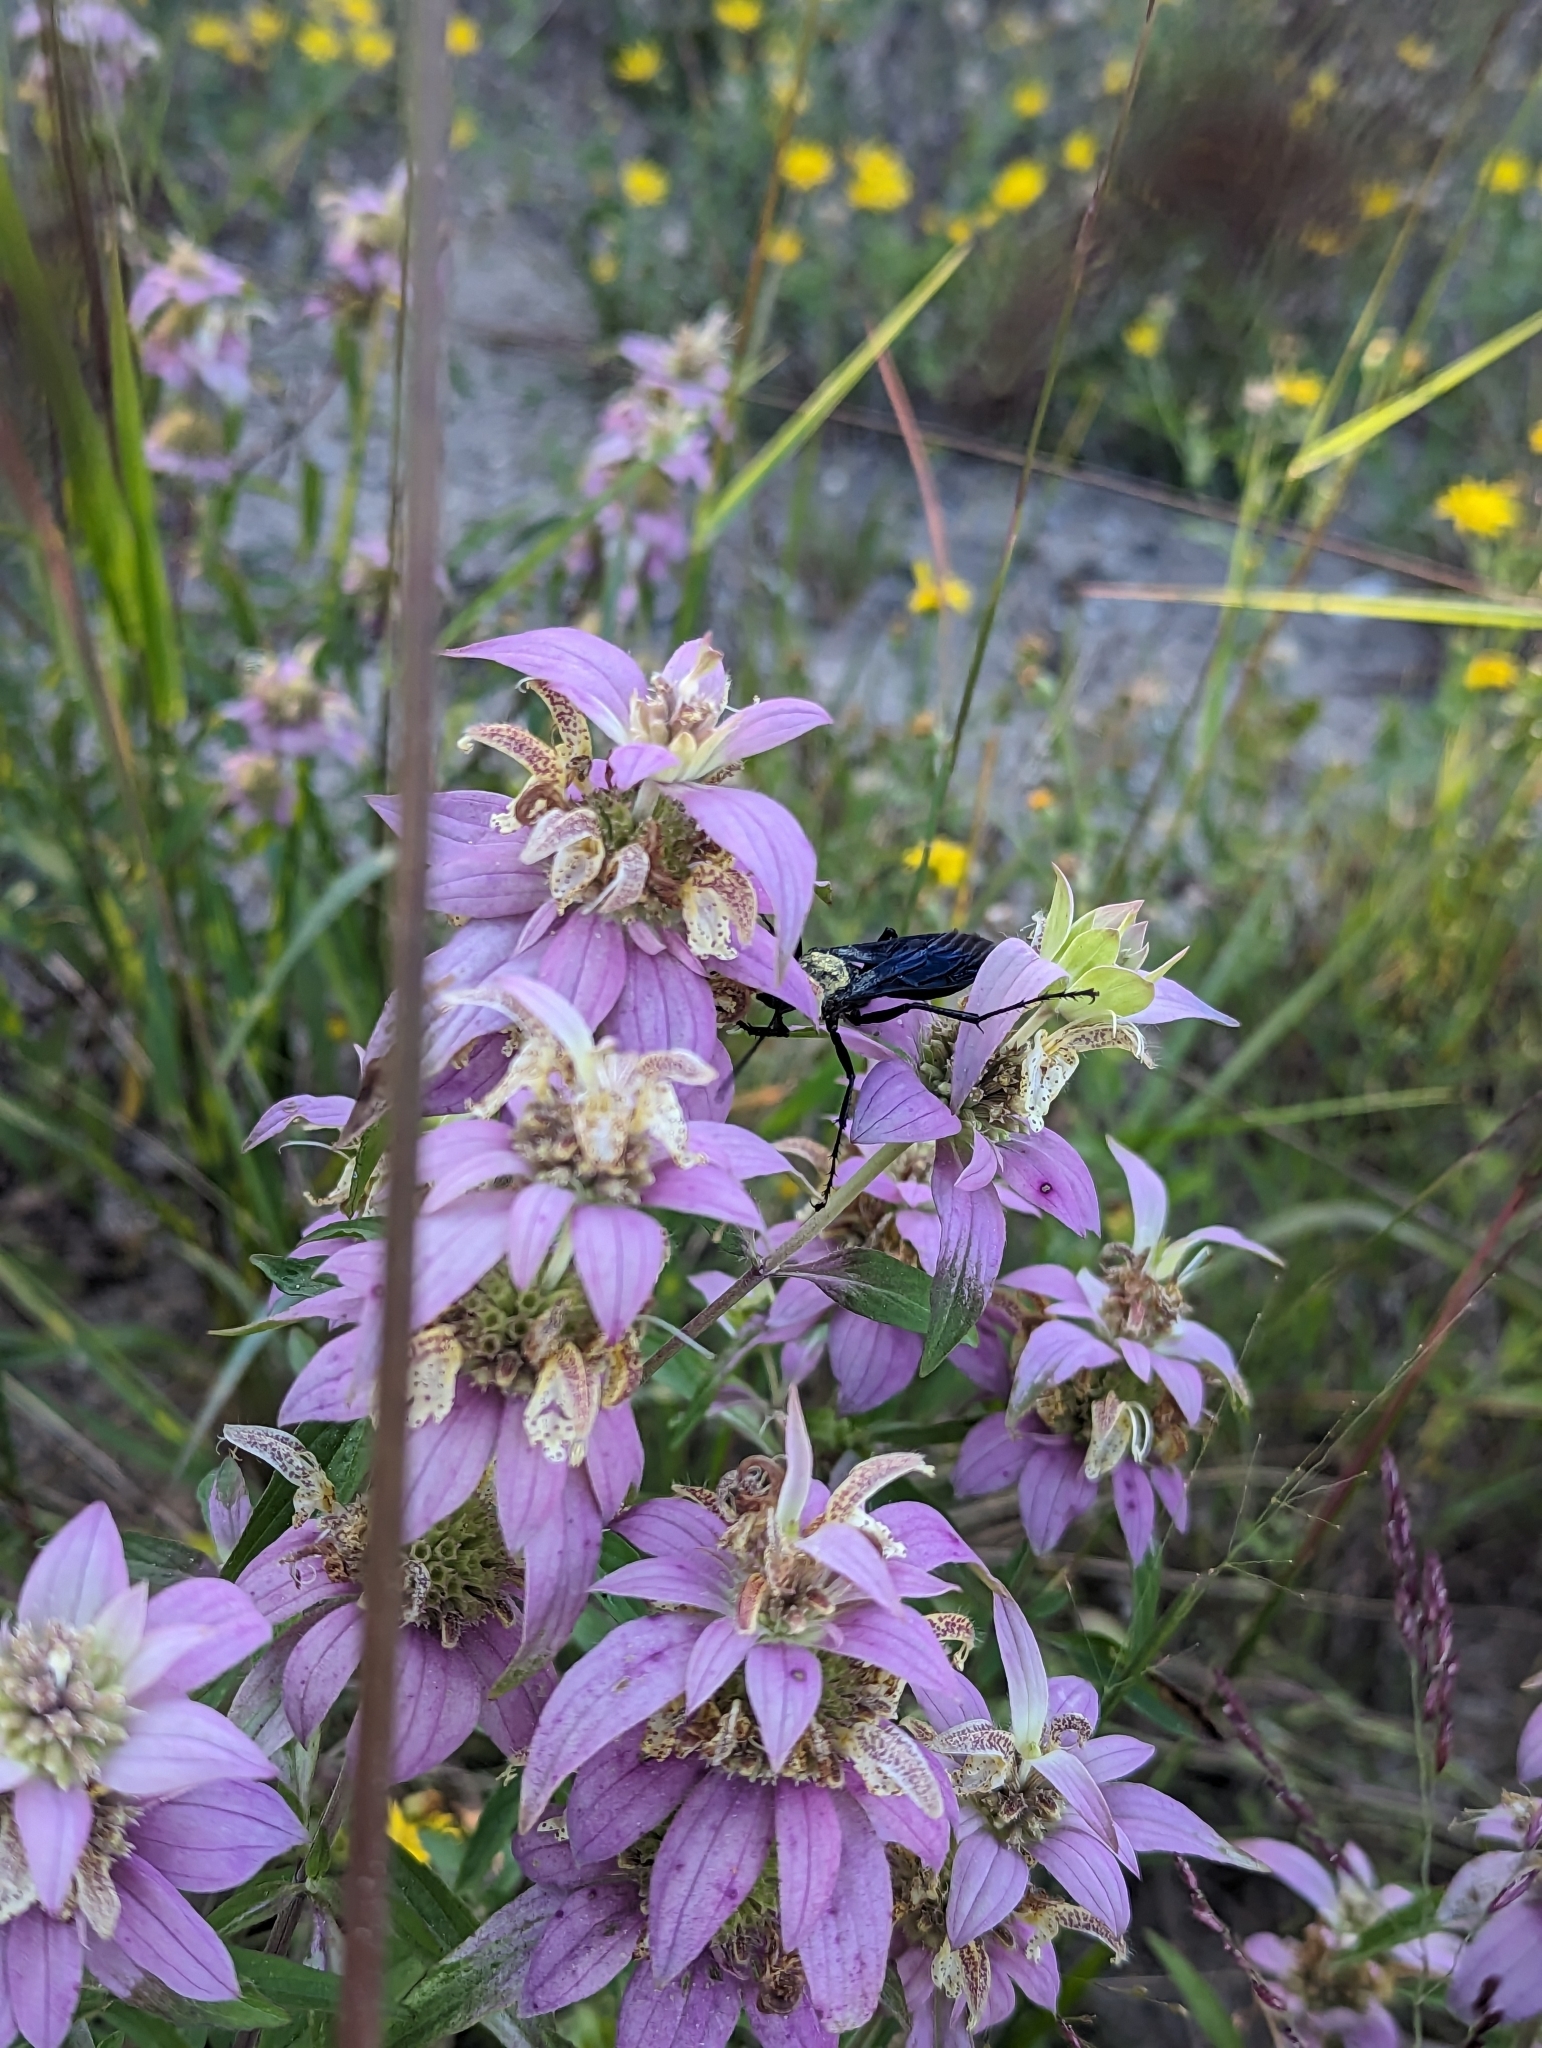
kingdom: Plantae
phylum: Tracheophyta
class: Magnoliopsida
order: Lamiales
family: Lamiaceae
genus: Monarda
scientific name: Monarda punctata
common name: Dotted monarda
